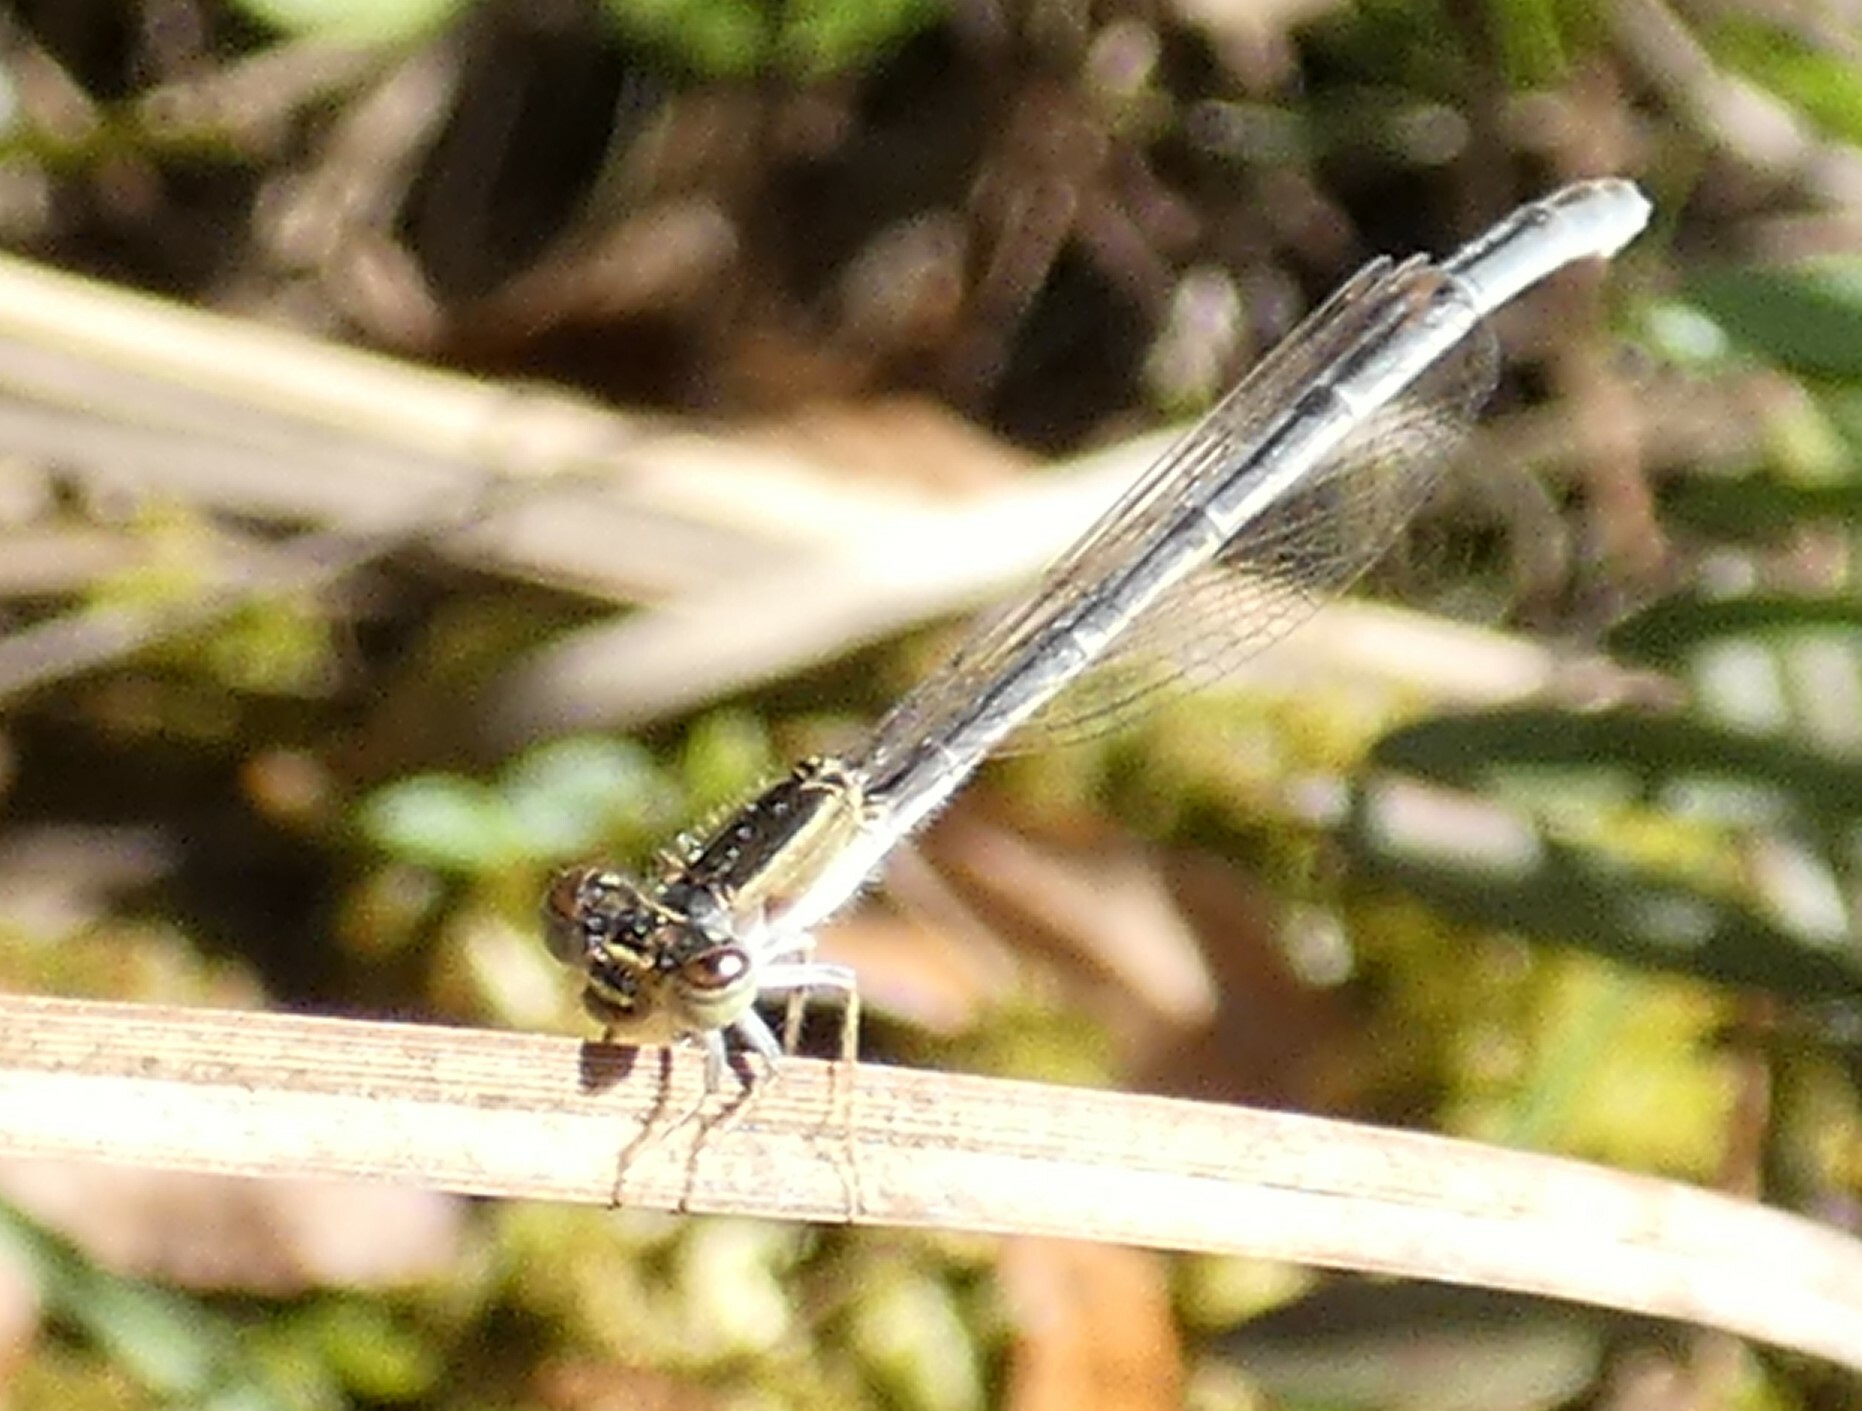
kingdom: Animalia
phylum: Arthropoda
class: Insecta
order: Odonata
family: Coenagrionidae
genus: Ischnura
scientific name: Ischnura hastata
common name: Citrine forktail
